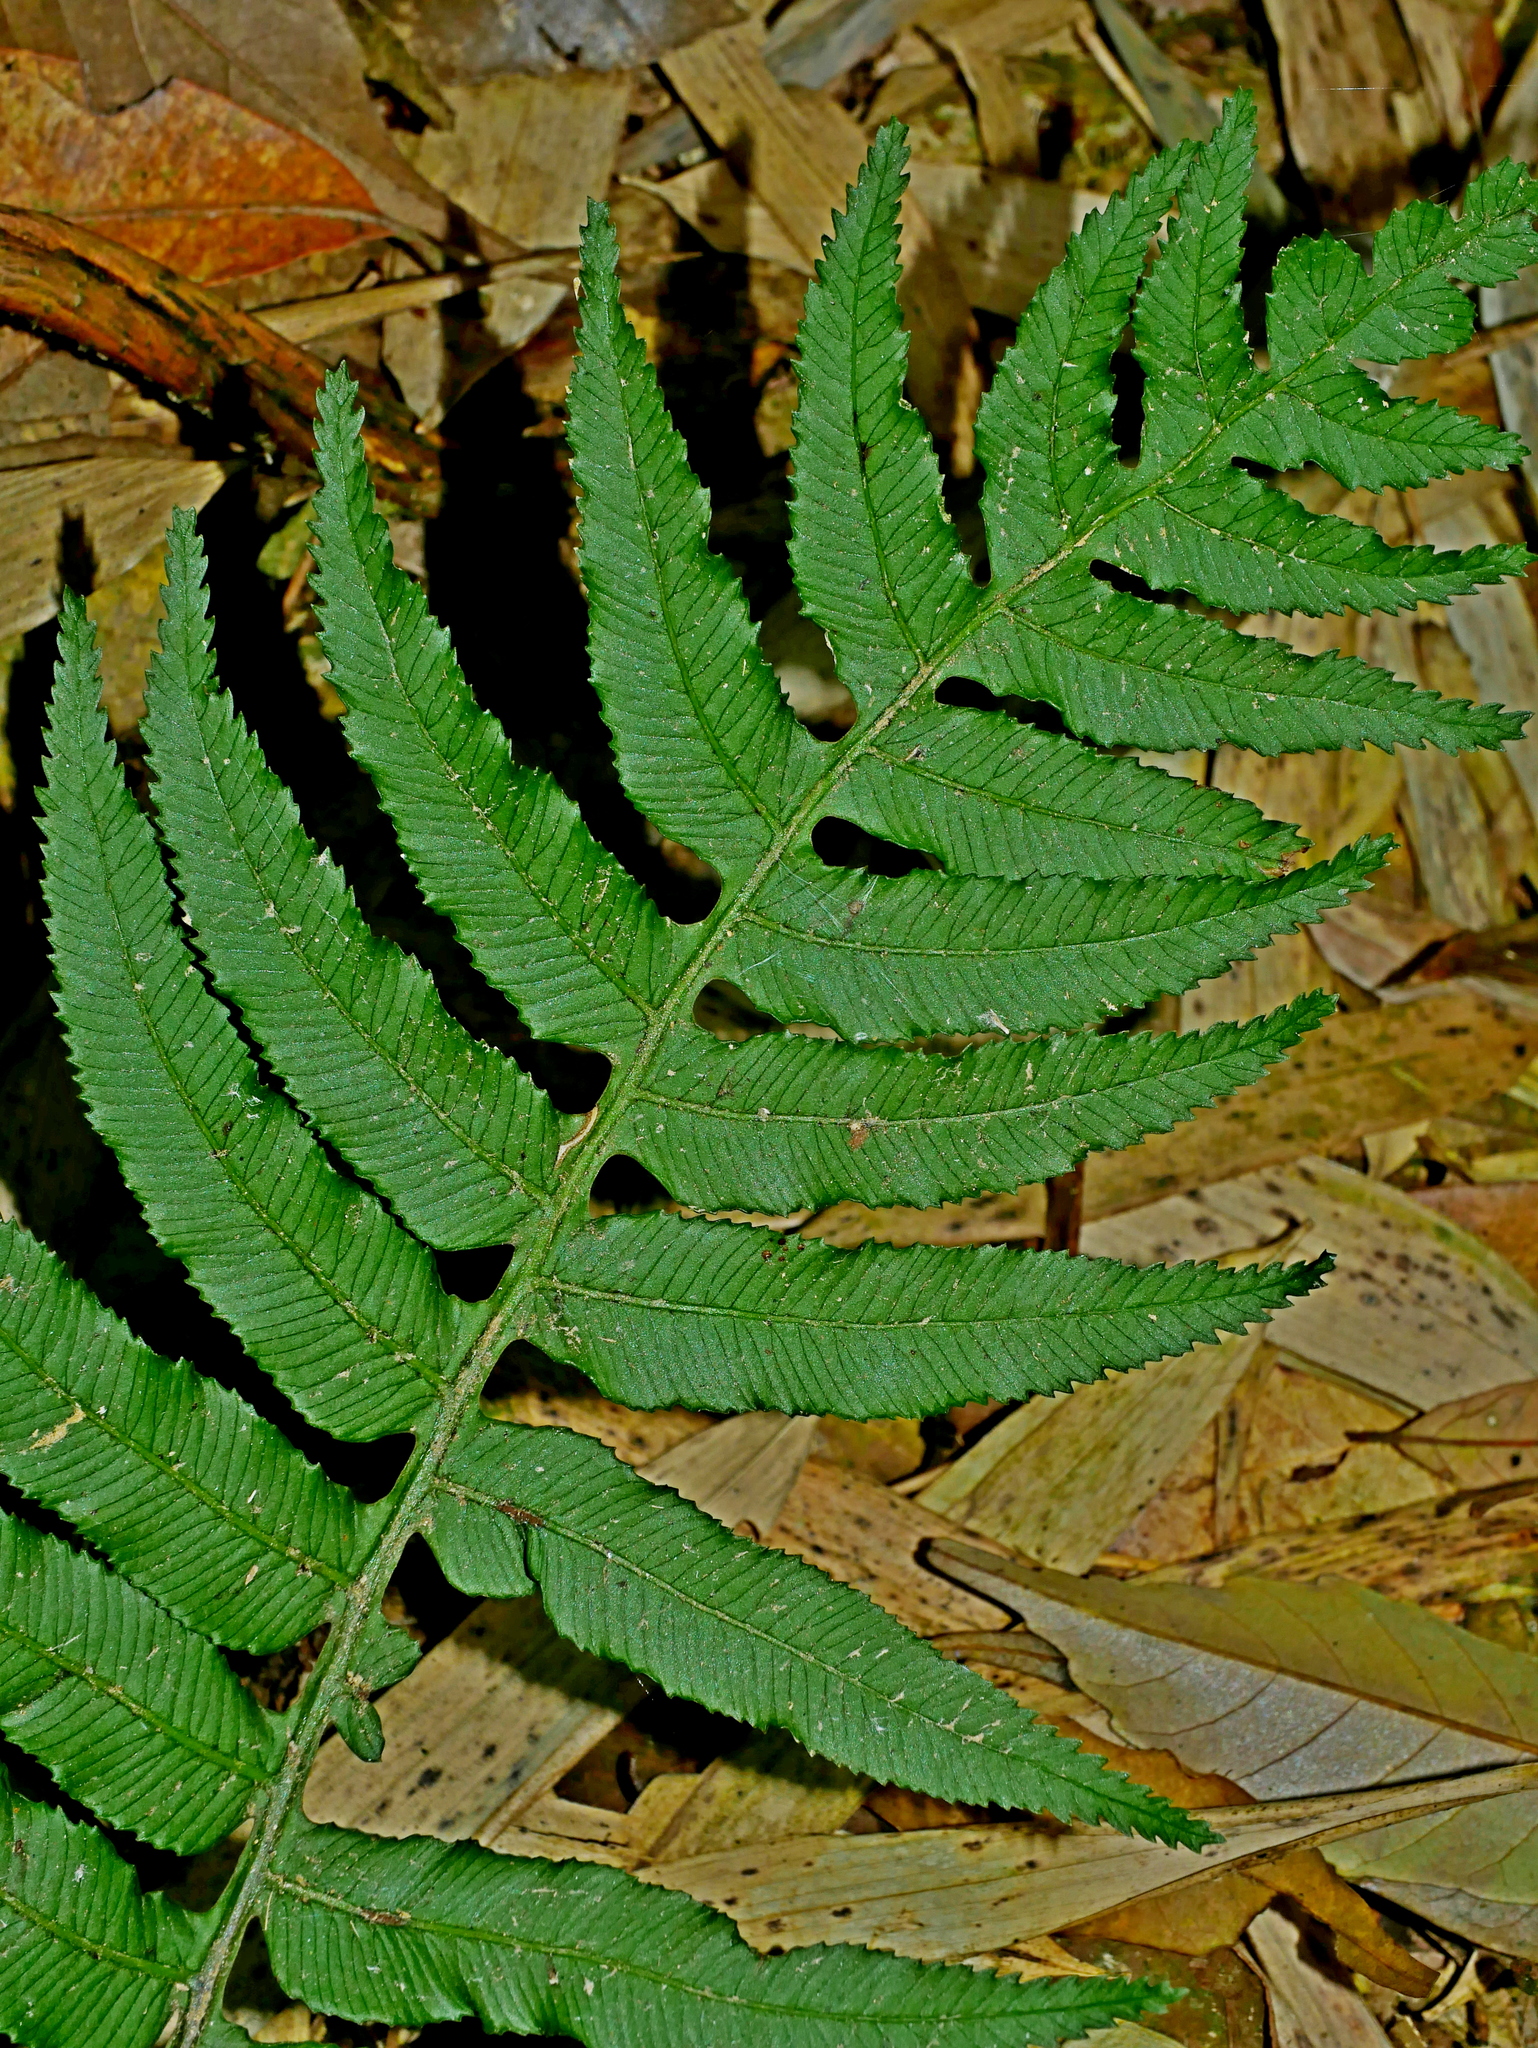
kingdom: Plantae
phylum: Tracheophyta
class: Polypodiopsida
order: Cyatheales
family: Plagiogyriaceae
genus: Plagiogyria
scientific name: Plagiogyria adnata
